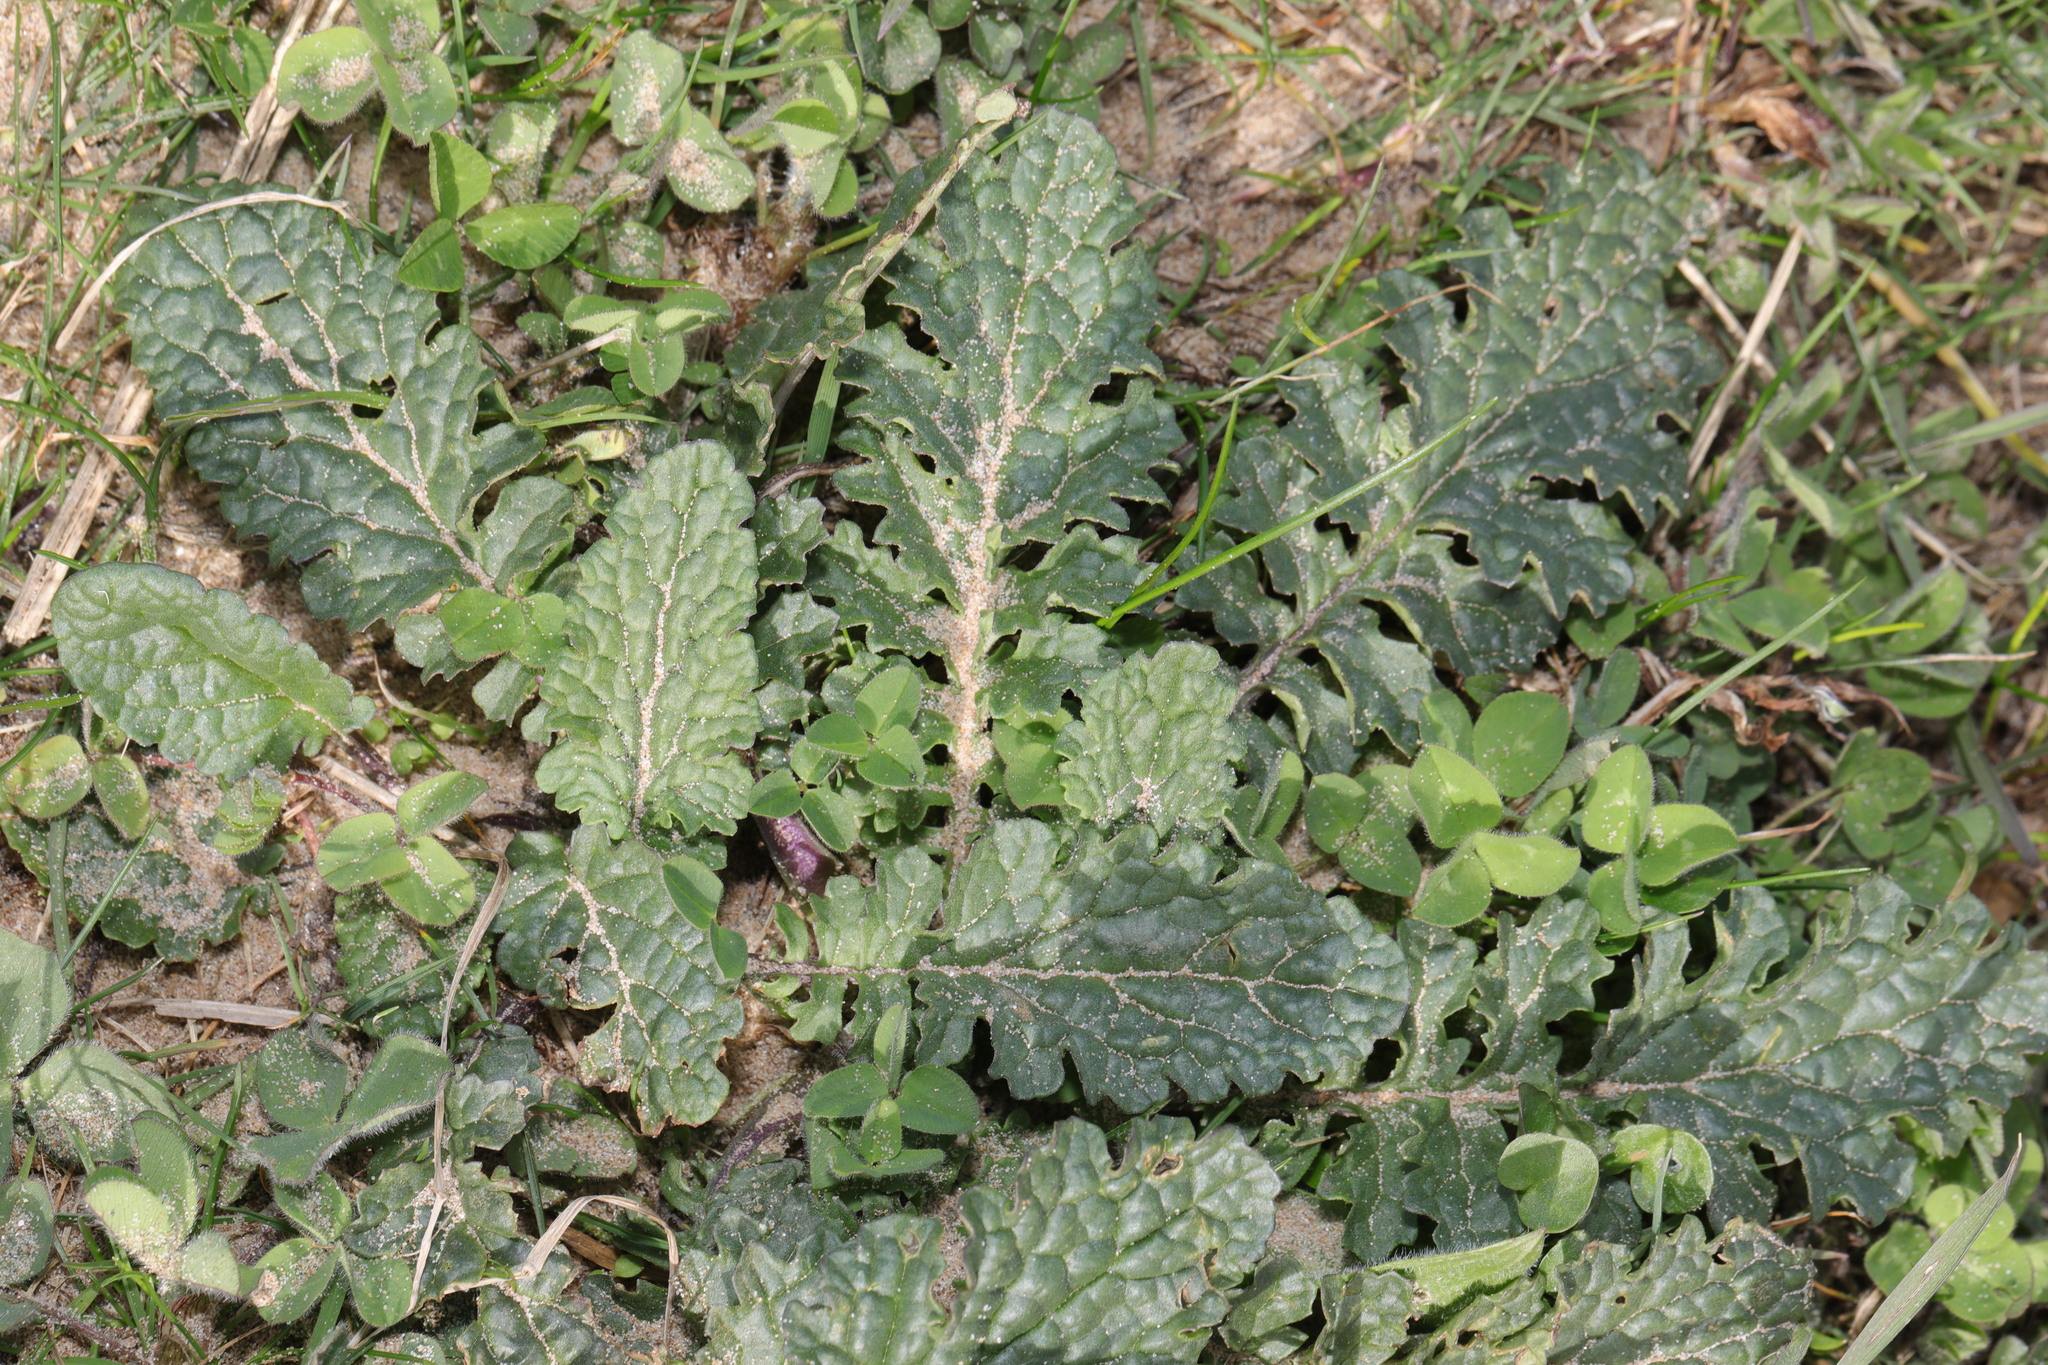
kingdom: Plantae
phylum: Tracheophyta
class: Magnoliopsida
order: Lamiales
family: Lamiaceae
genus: Salvia
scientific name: Salvia verbenaca
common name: Wild clary
